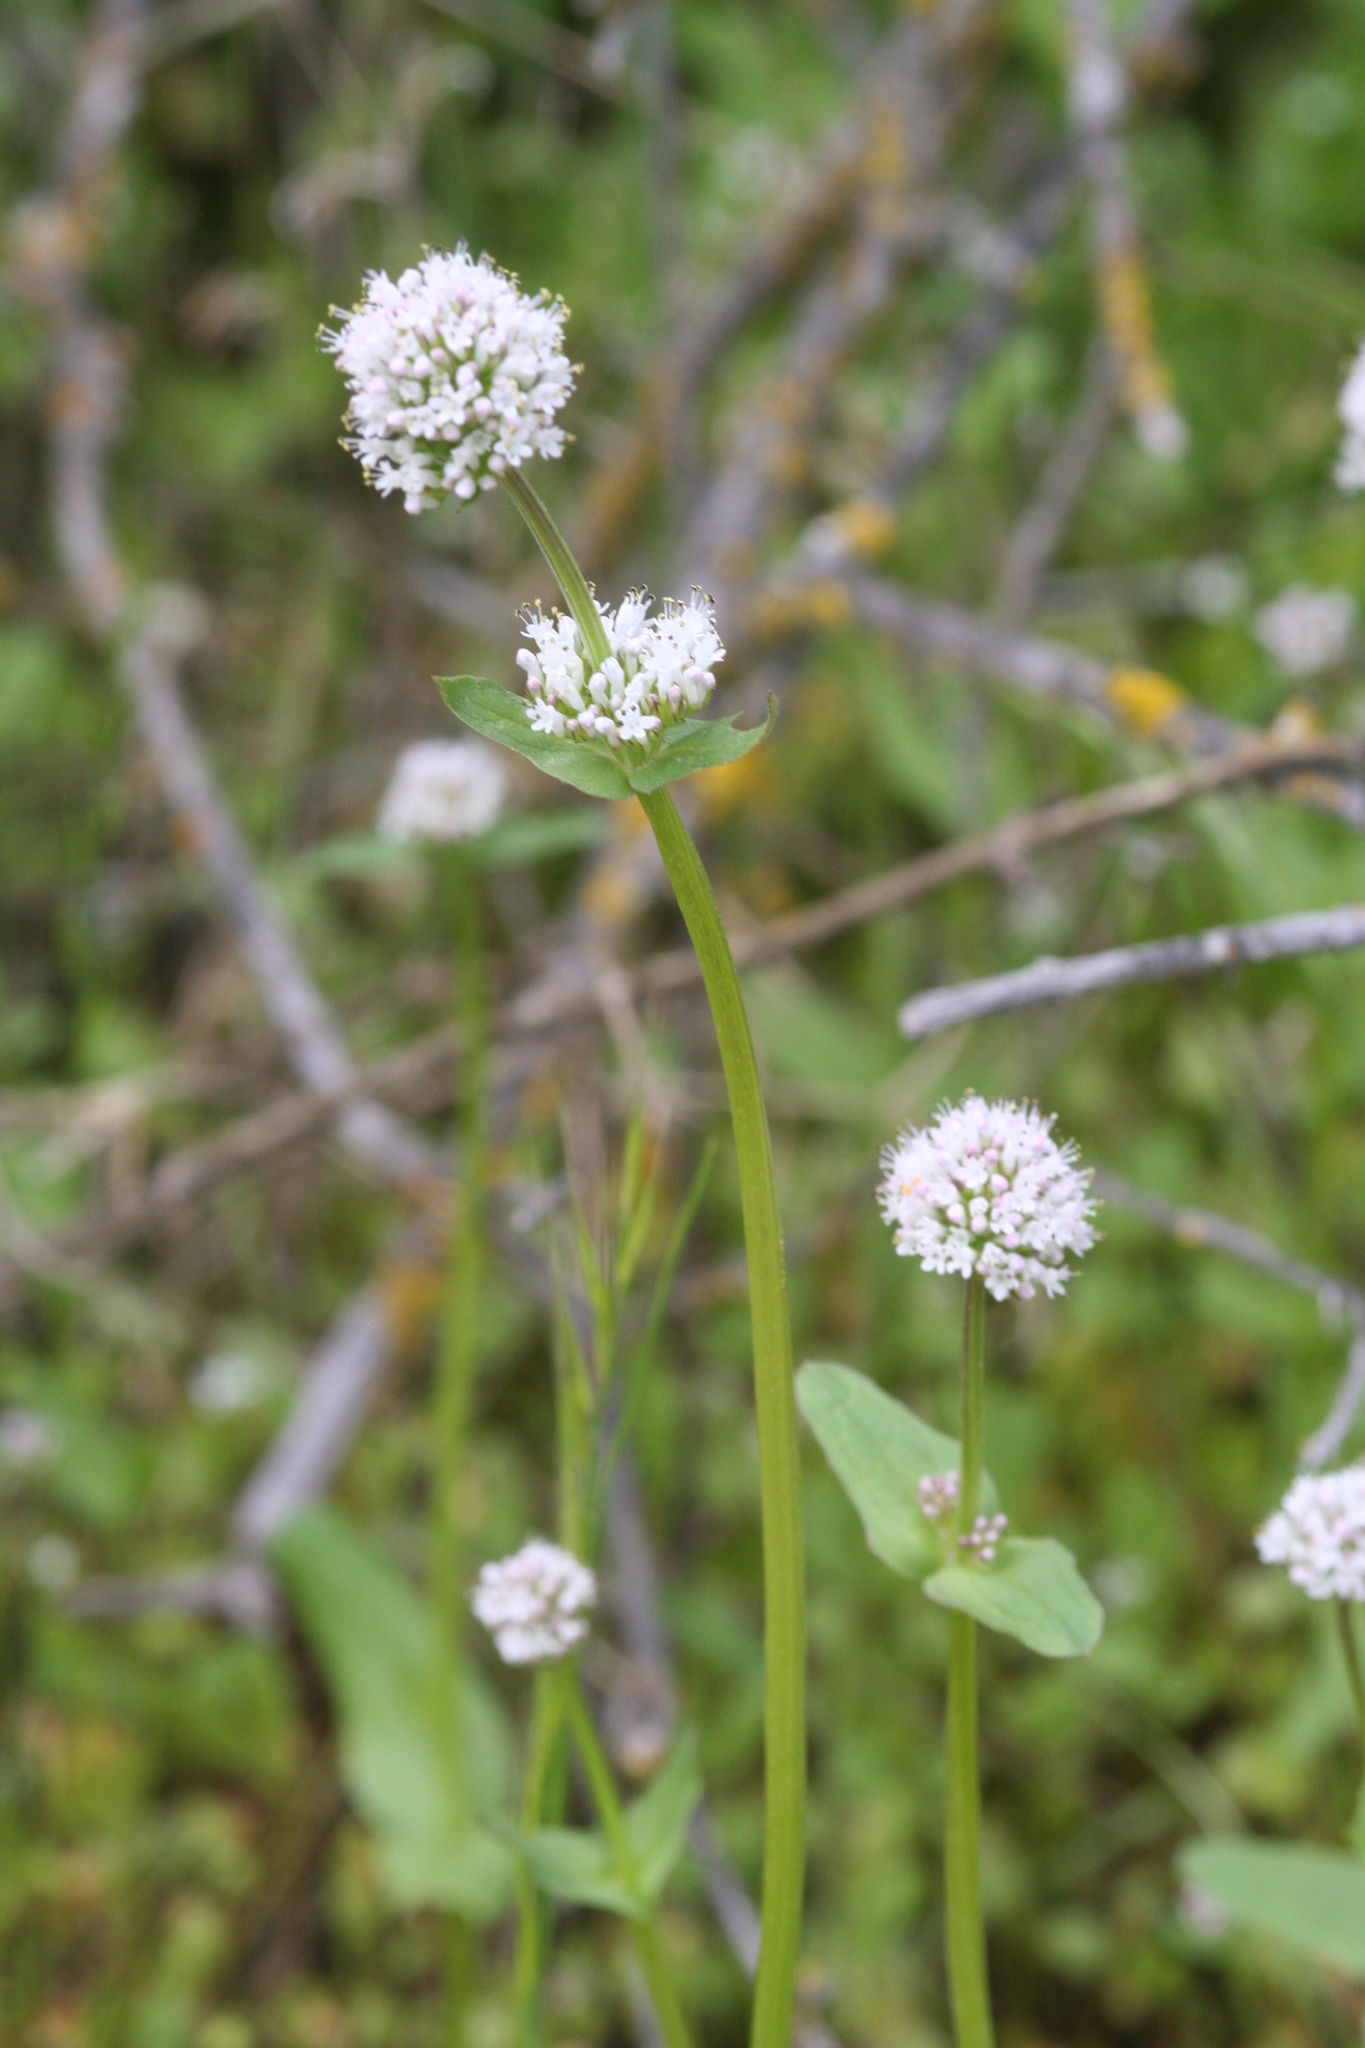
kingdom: Plantae
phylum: Tracheophyta
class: Magnoliopsida
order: Dipsacales
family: Caprifoliaceae
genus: Plectritis
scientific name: Plectritis macroptera
